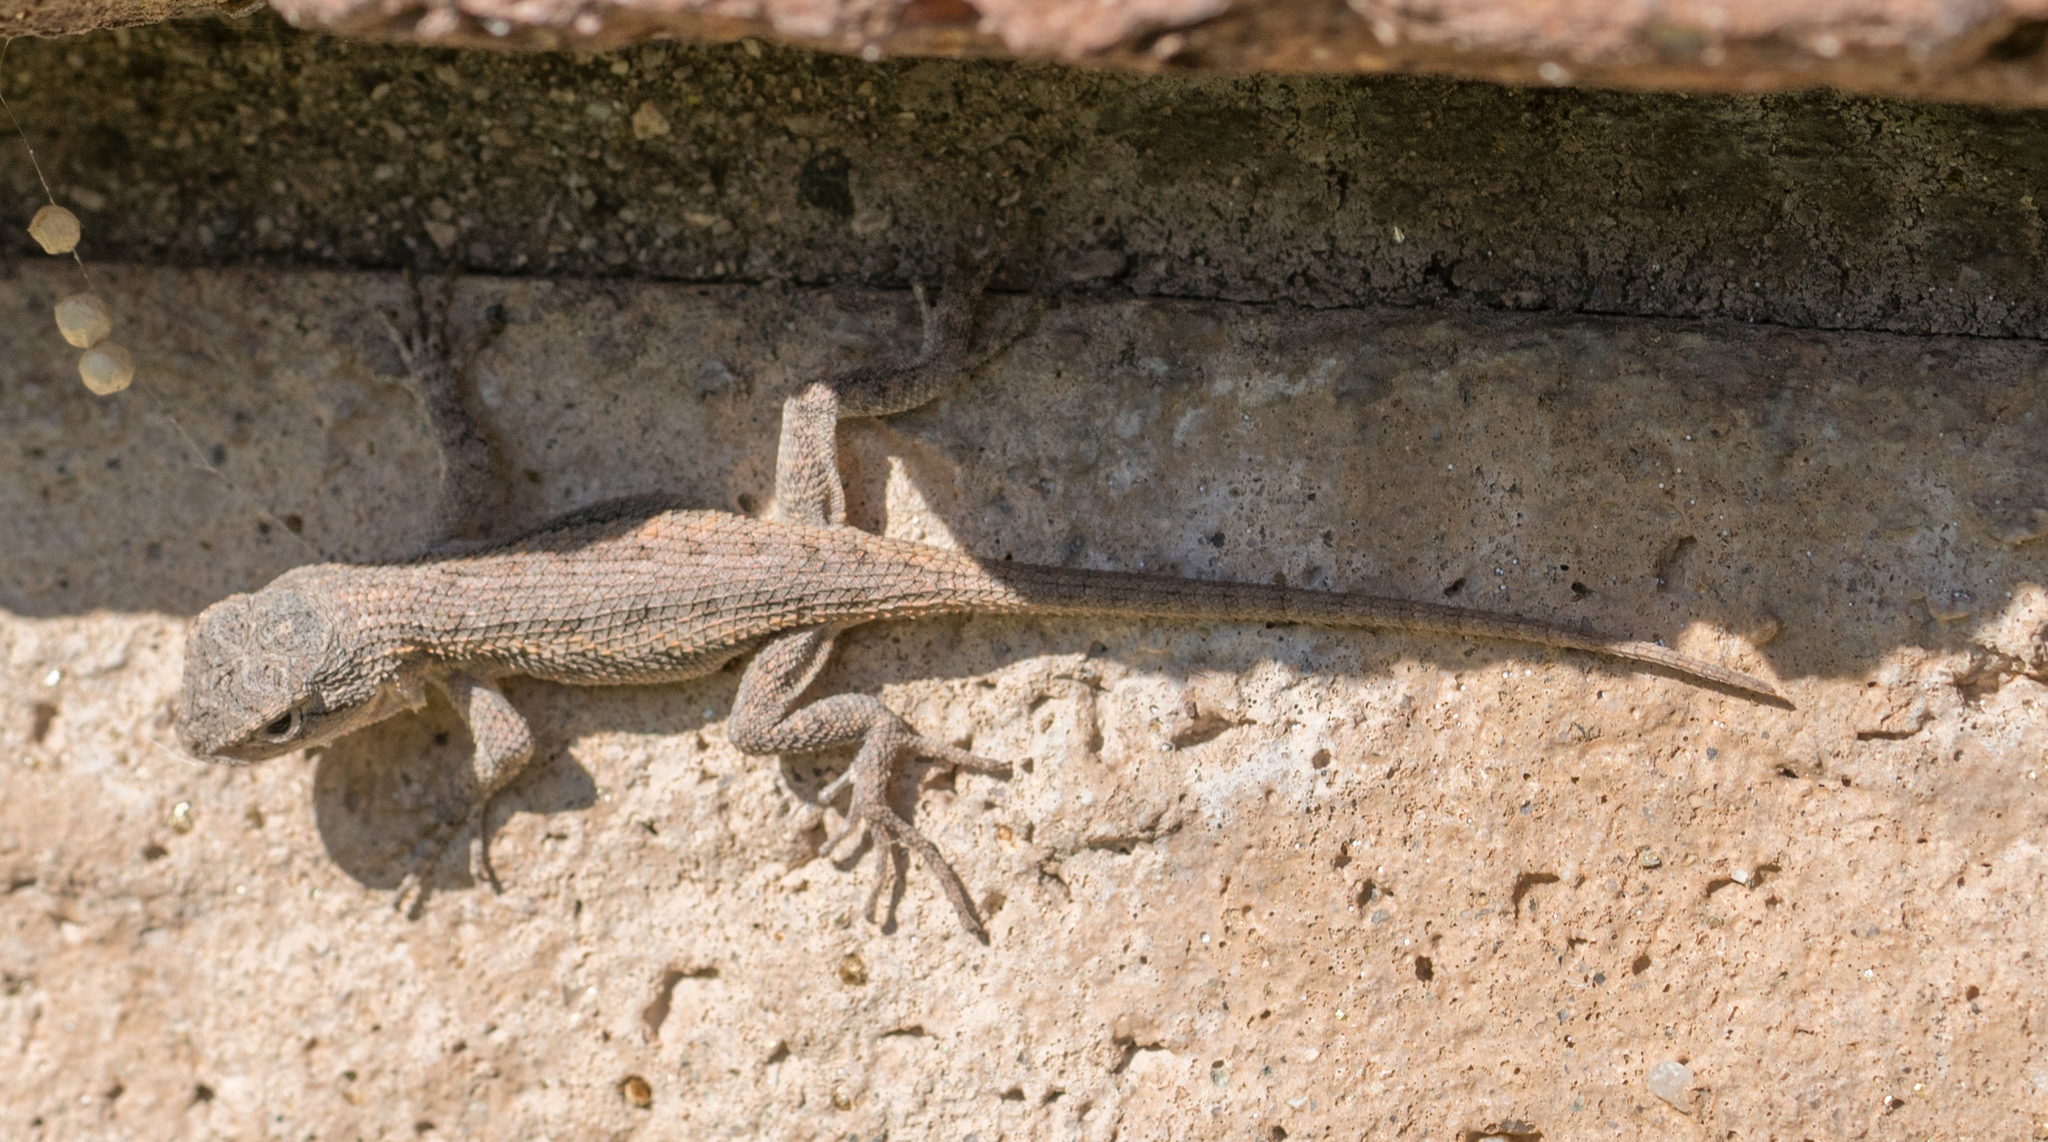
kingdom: Animalia
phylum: Chordata
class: Squamata
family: Phrynosomatidae
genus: Sceloporus
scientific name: Sceloporus occidentalis
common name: Western fence lizard
